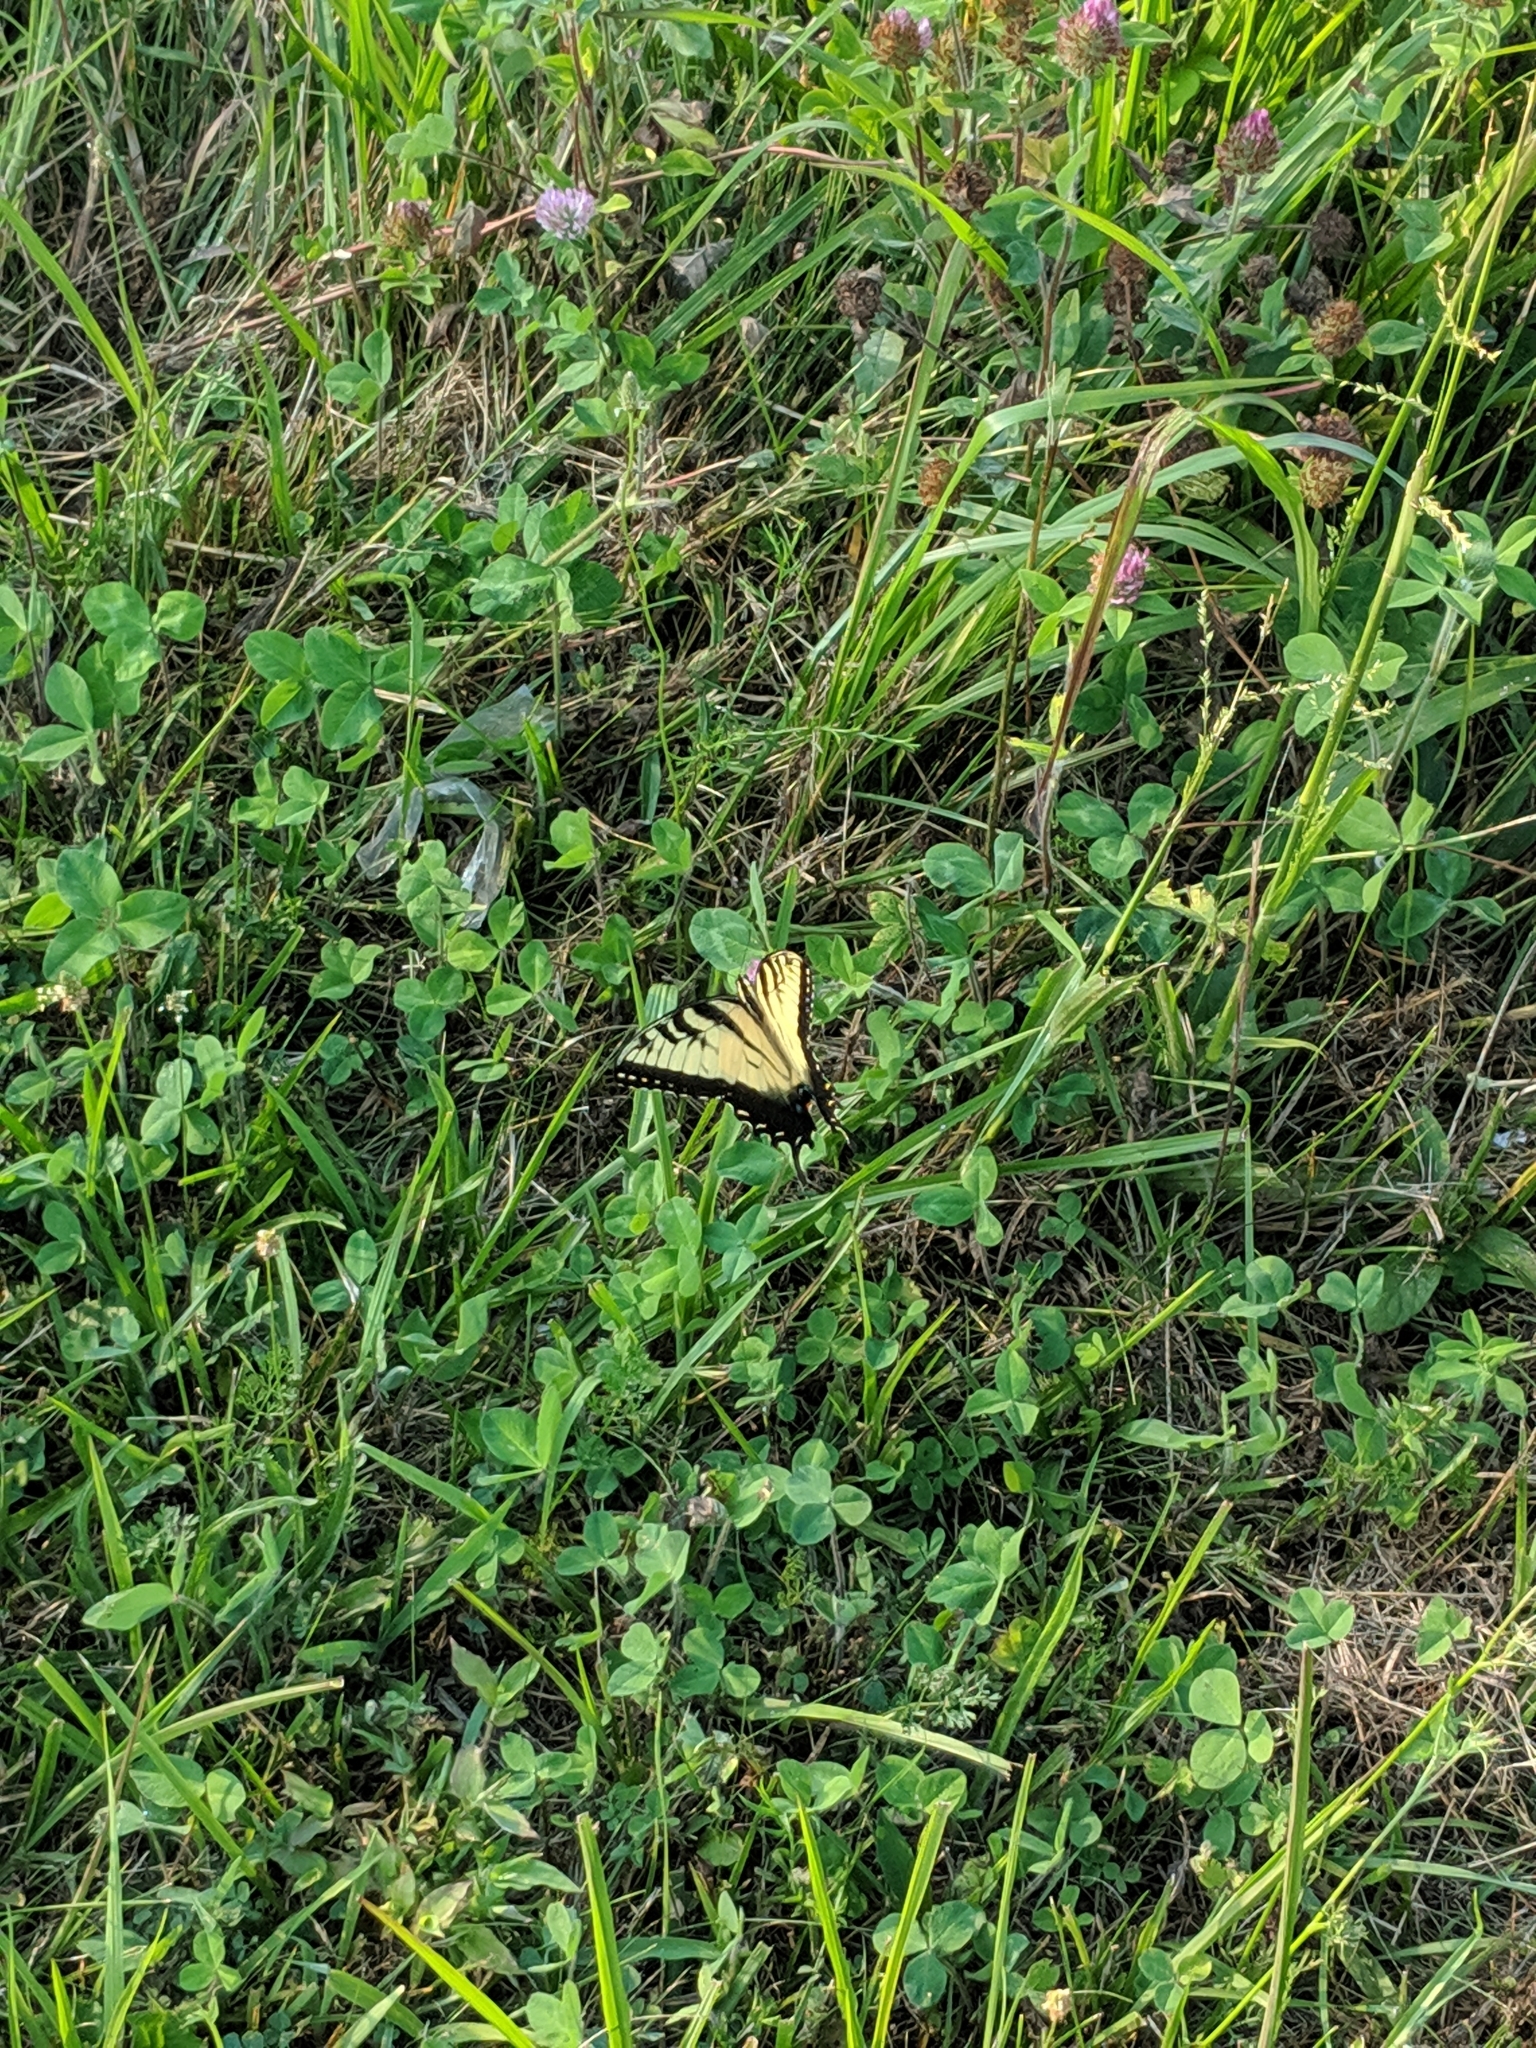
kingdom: Animalia
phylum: Arthropoda
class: Insecta
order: Lepidoptera
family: Papilionidae
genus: Papilio
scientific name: Papilio glaucus
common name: Tiger swallowtail
